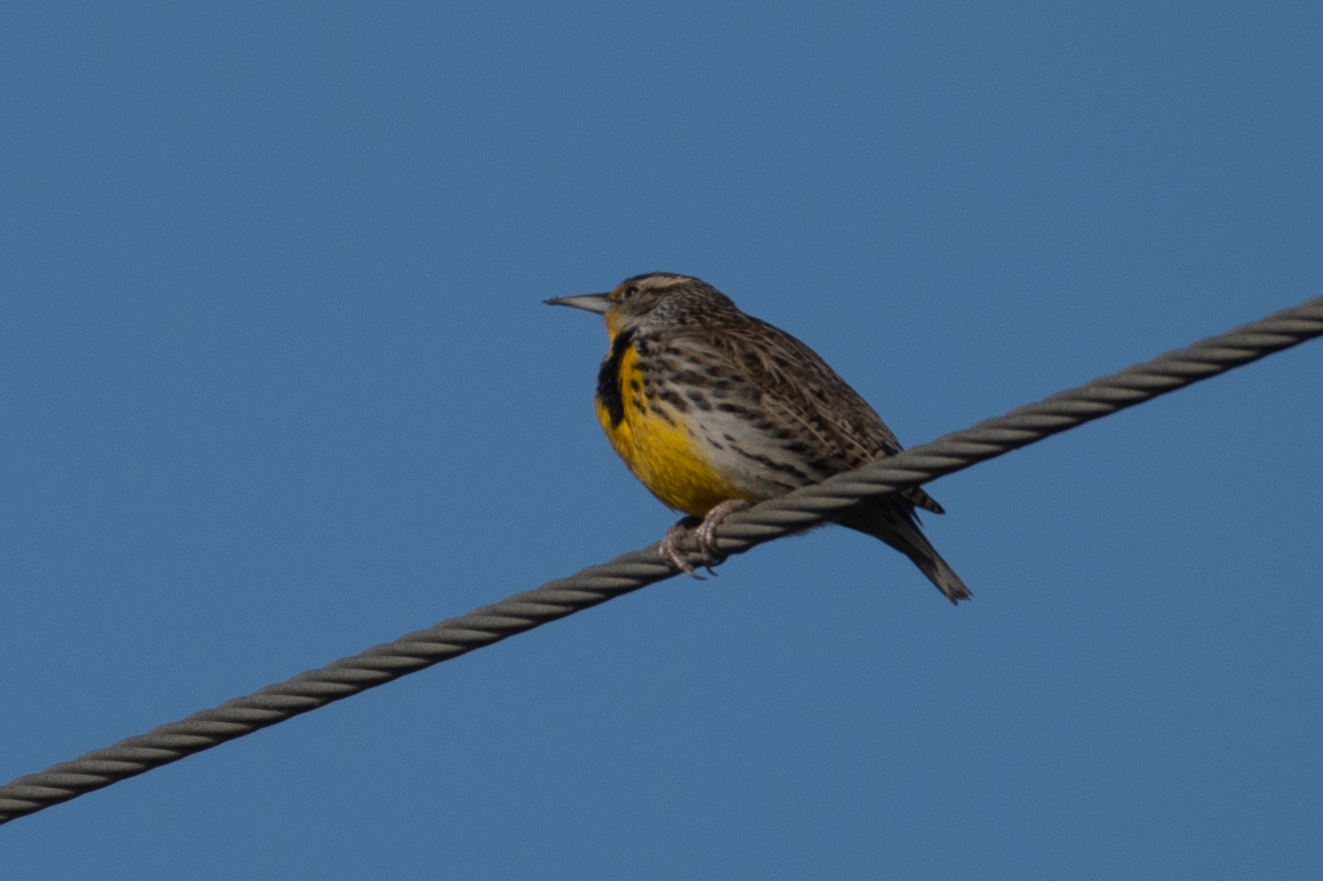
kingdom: Animalia
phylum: Chordata
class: Aves
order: Passeriformes
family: Icteridae
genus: Sturnella
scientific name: Sturnella neglecta
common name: Western meadowlark
